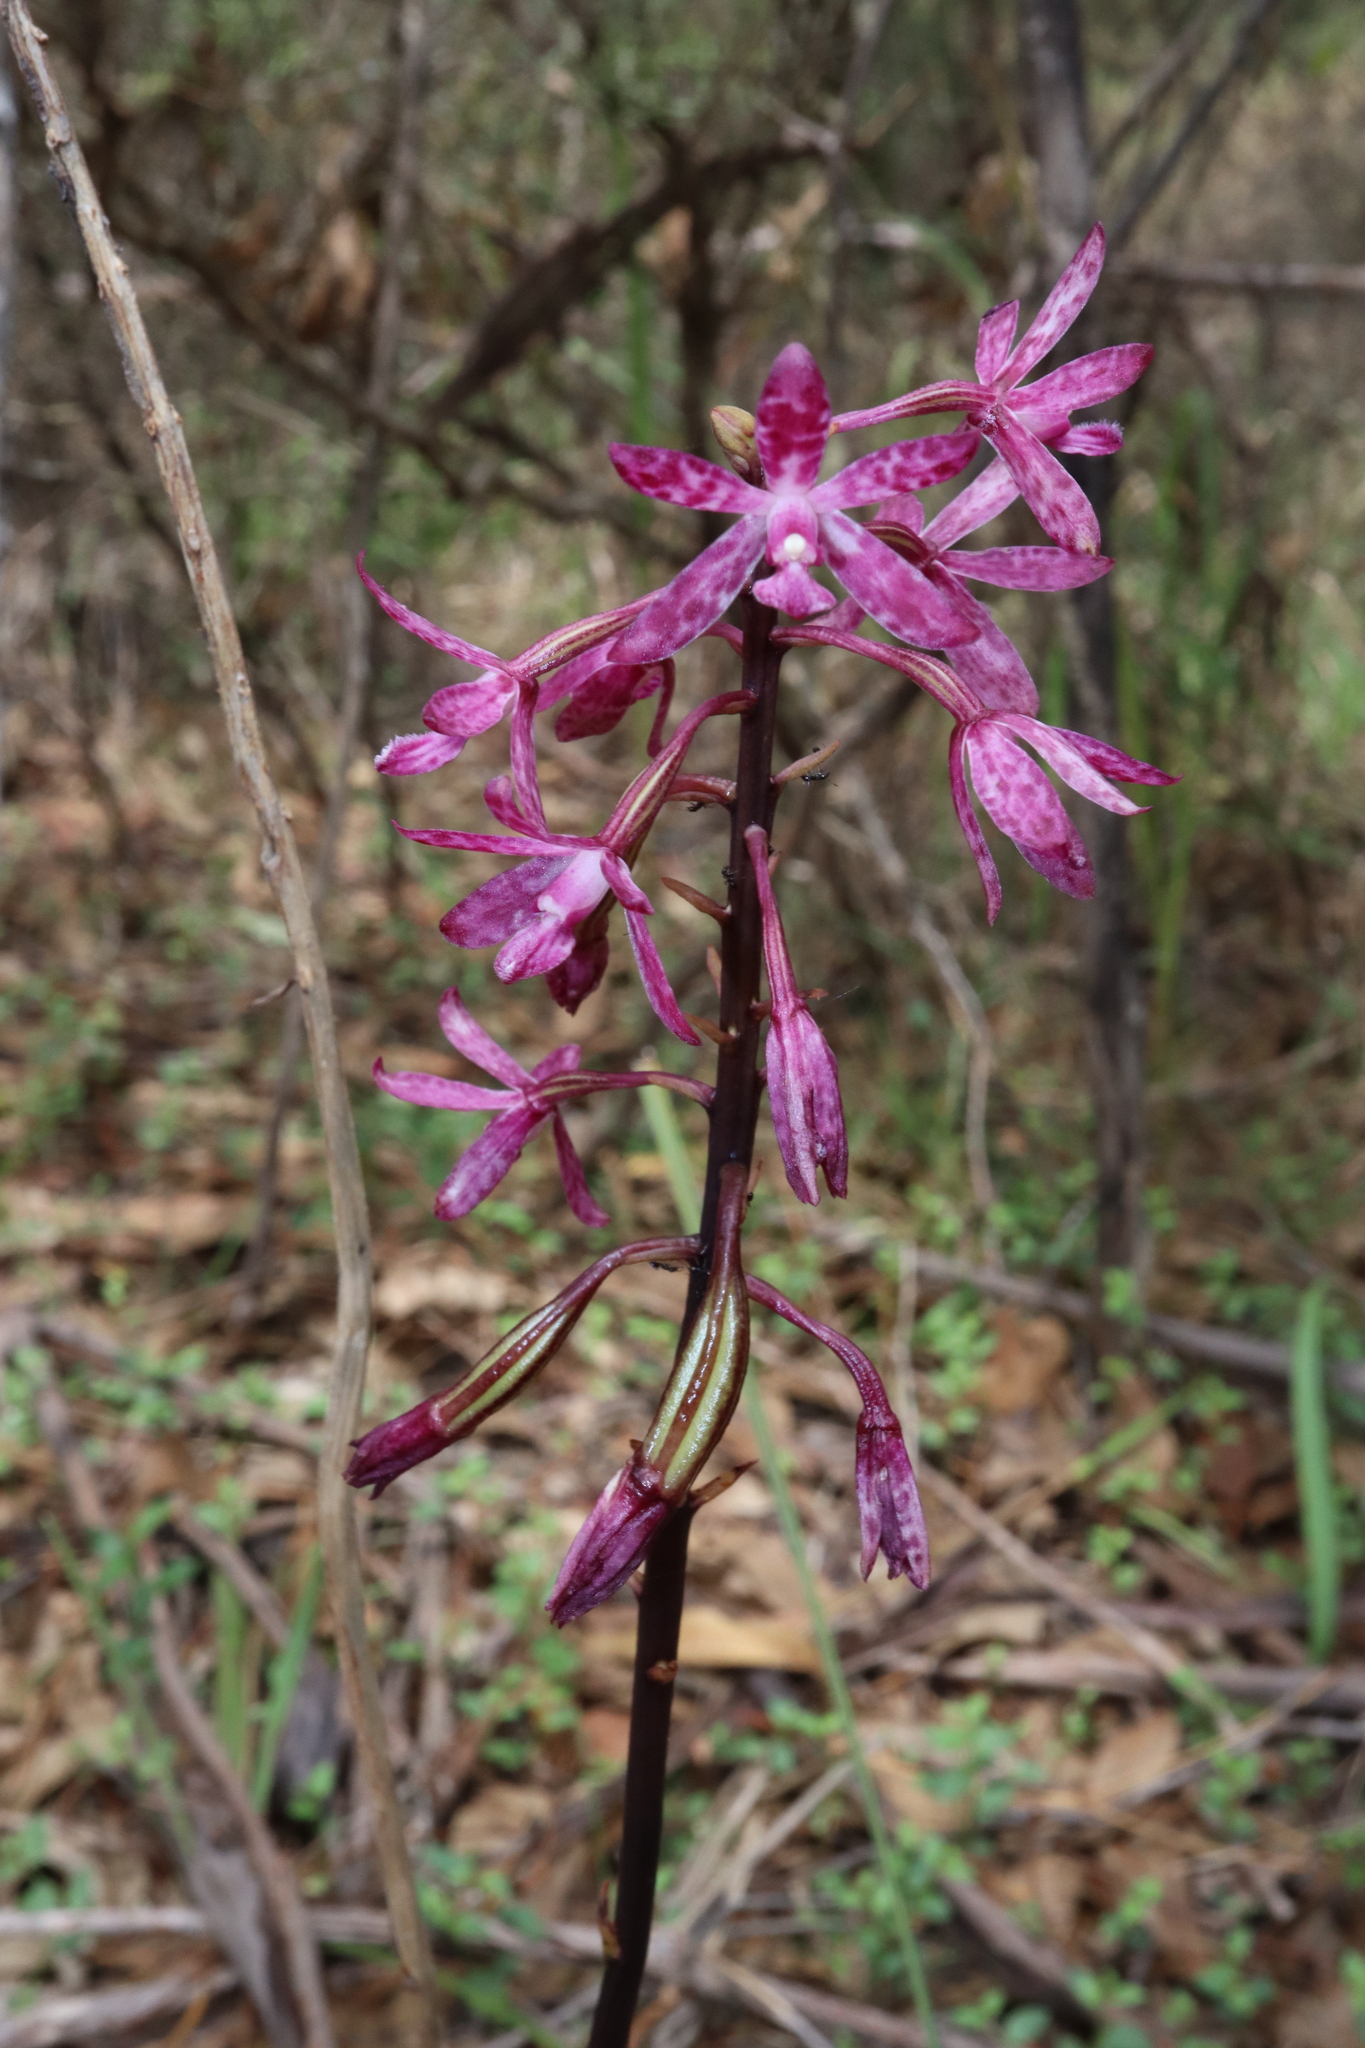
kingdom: Plantae
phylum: Tracheophyta
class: Liliopsida
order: Asparagales
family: Orchidaceae
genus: Dipodium
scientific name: Dipodium squamatum
